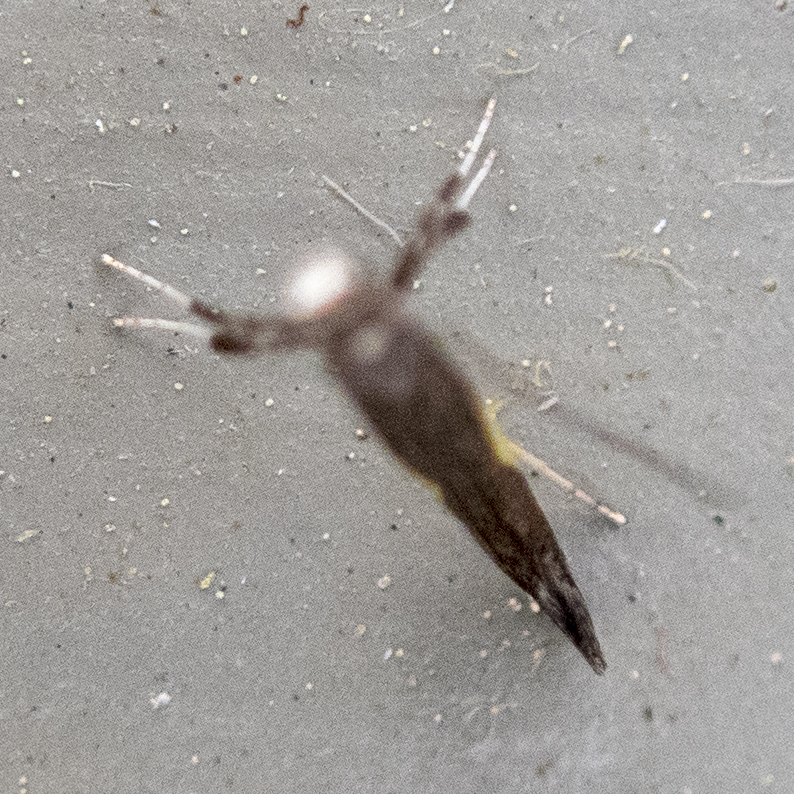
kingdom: Animalia
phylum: Arthropoda
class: Insecta
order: Lepidoptera
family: Gracillariidae
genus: Caloptilia
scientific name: Caloptilia stigmatella
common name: White-triangle slender
